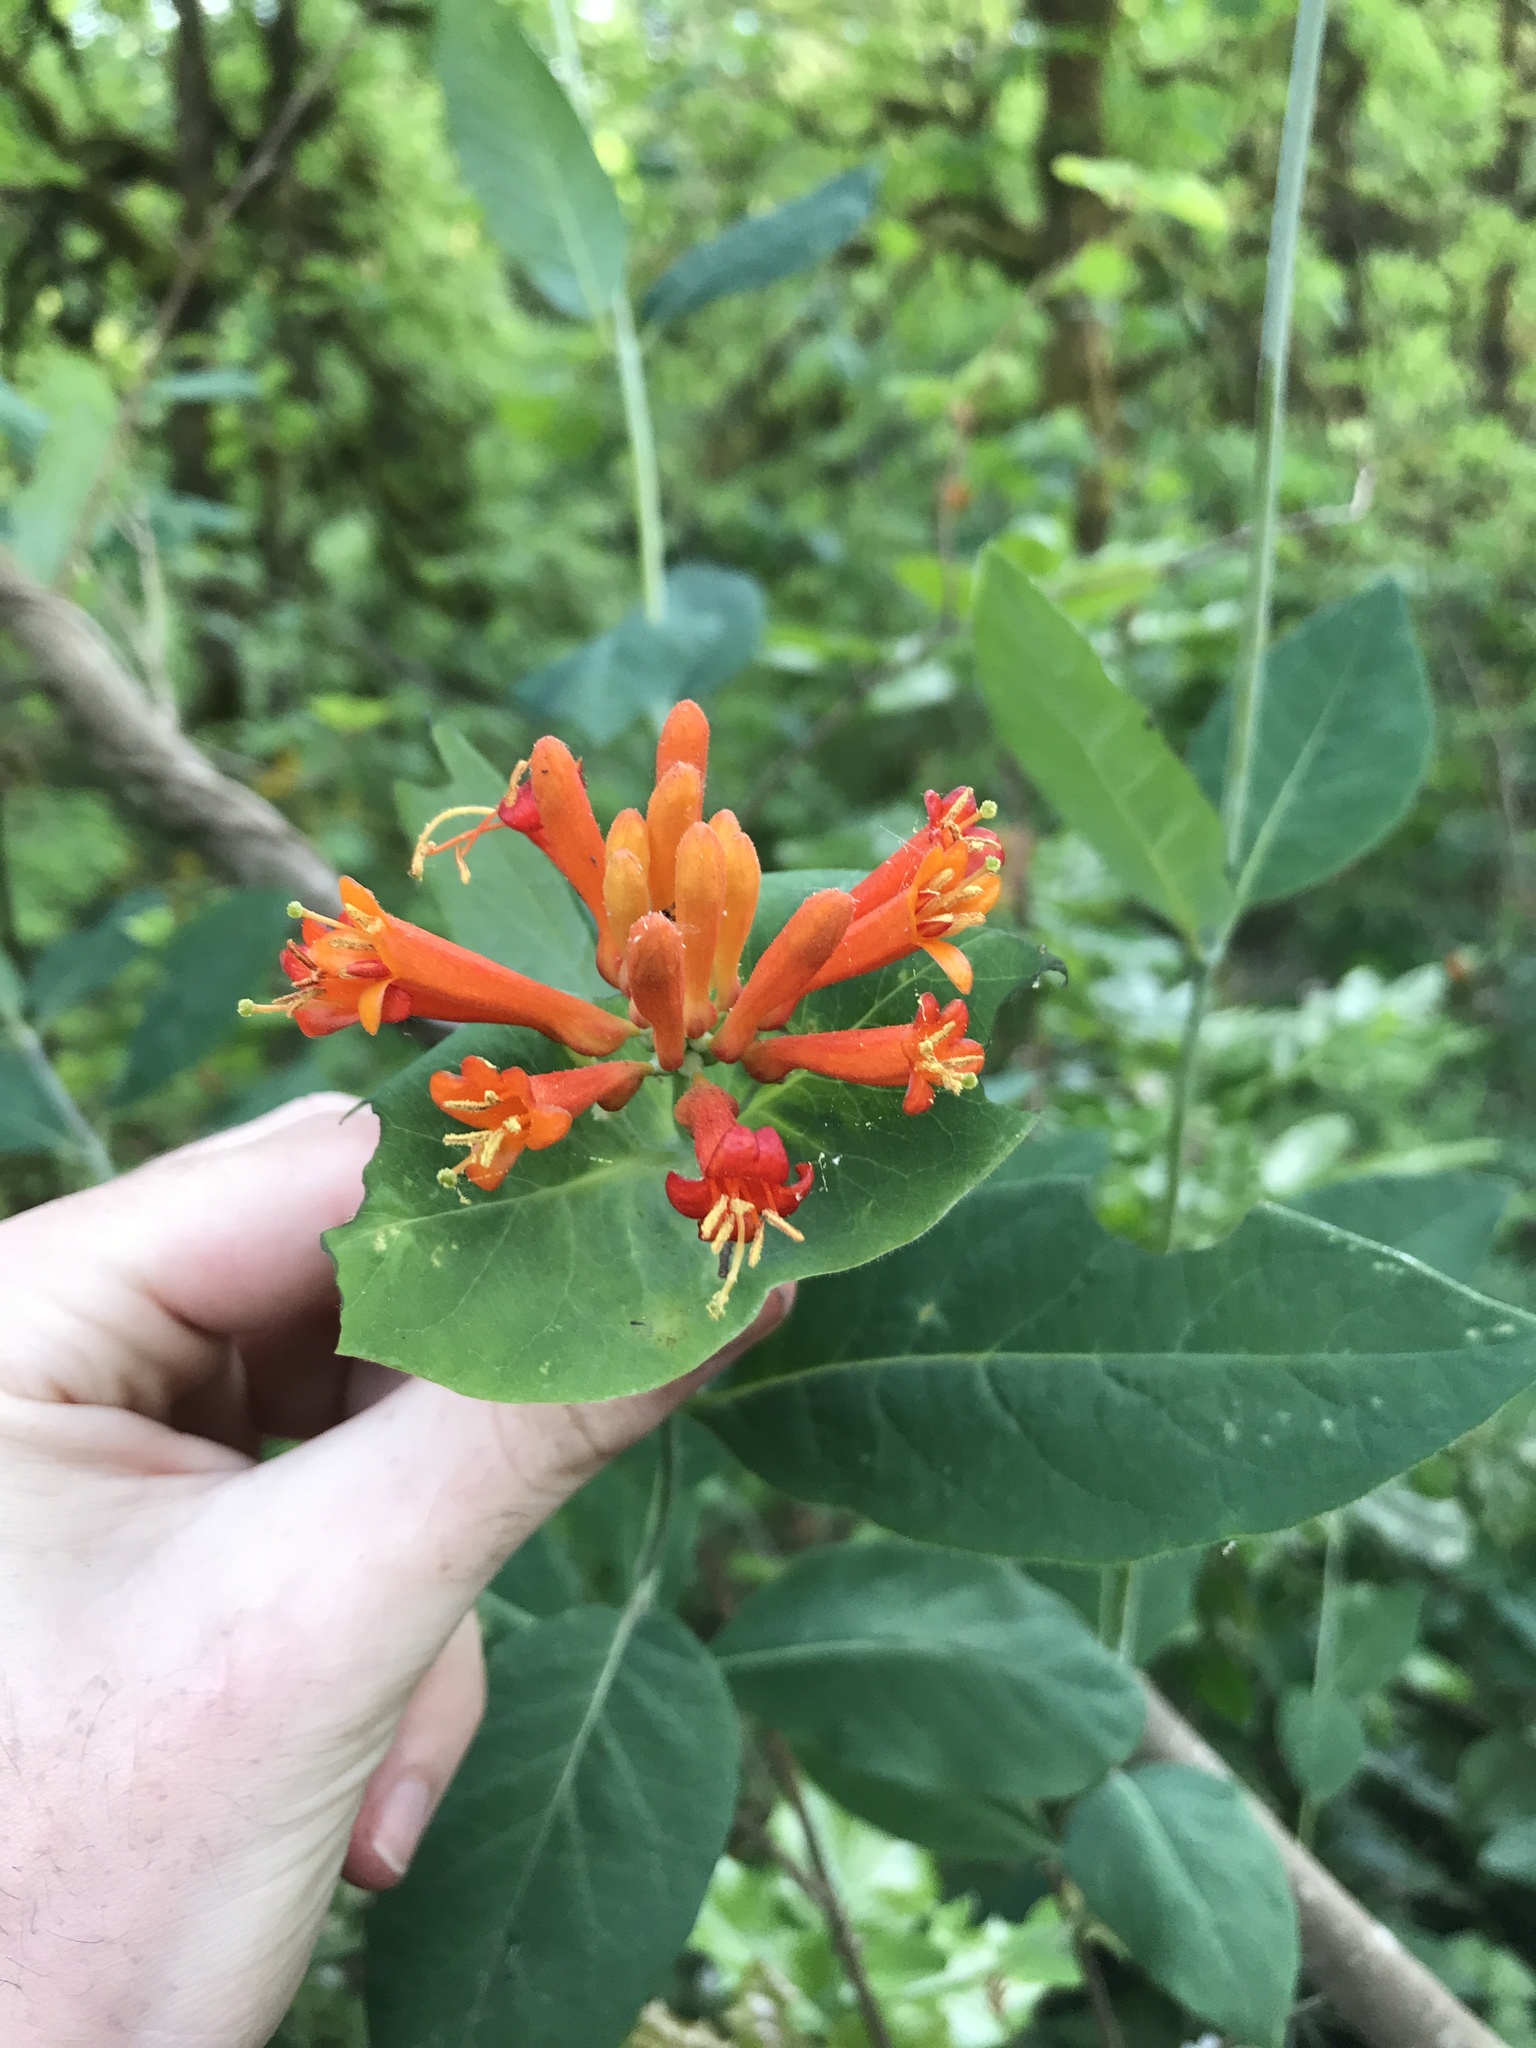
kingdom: Plantae
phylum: Tracheophyta
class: Magnoliopsida
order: Dipsacales
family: Caprifoliaceae
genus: Lonicera
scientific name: Lonicera ciliosa
